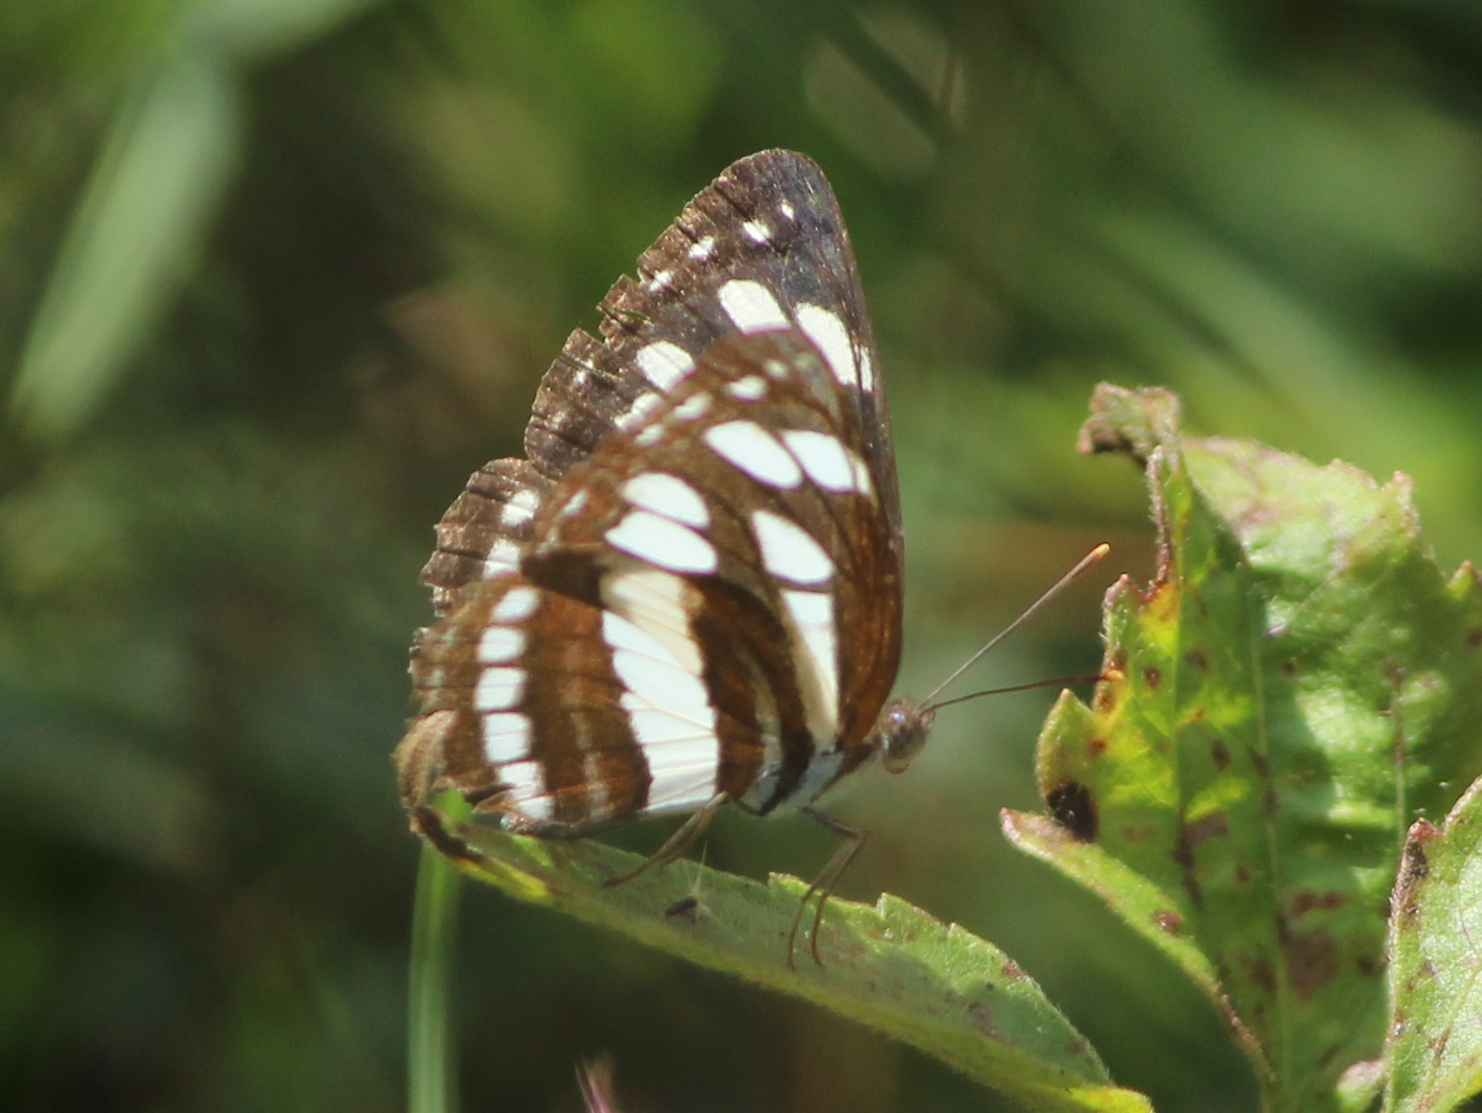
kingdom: Animalia
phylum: Arthropoda
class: Insecta
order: Lepidoptera
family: Nymphalidae
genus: Neptis
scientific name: Neptis hylas
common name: Common sailer
